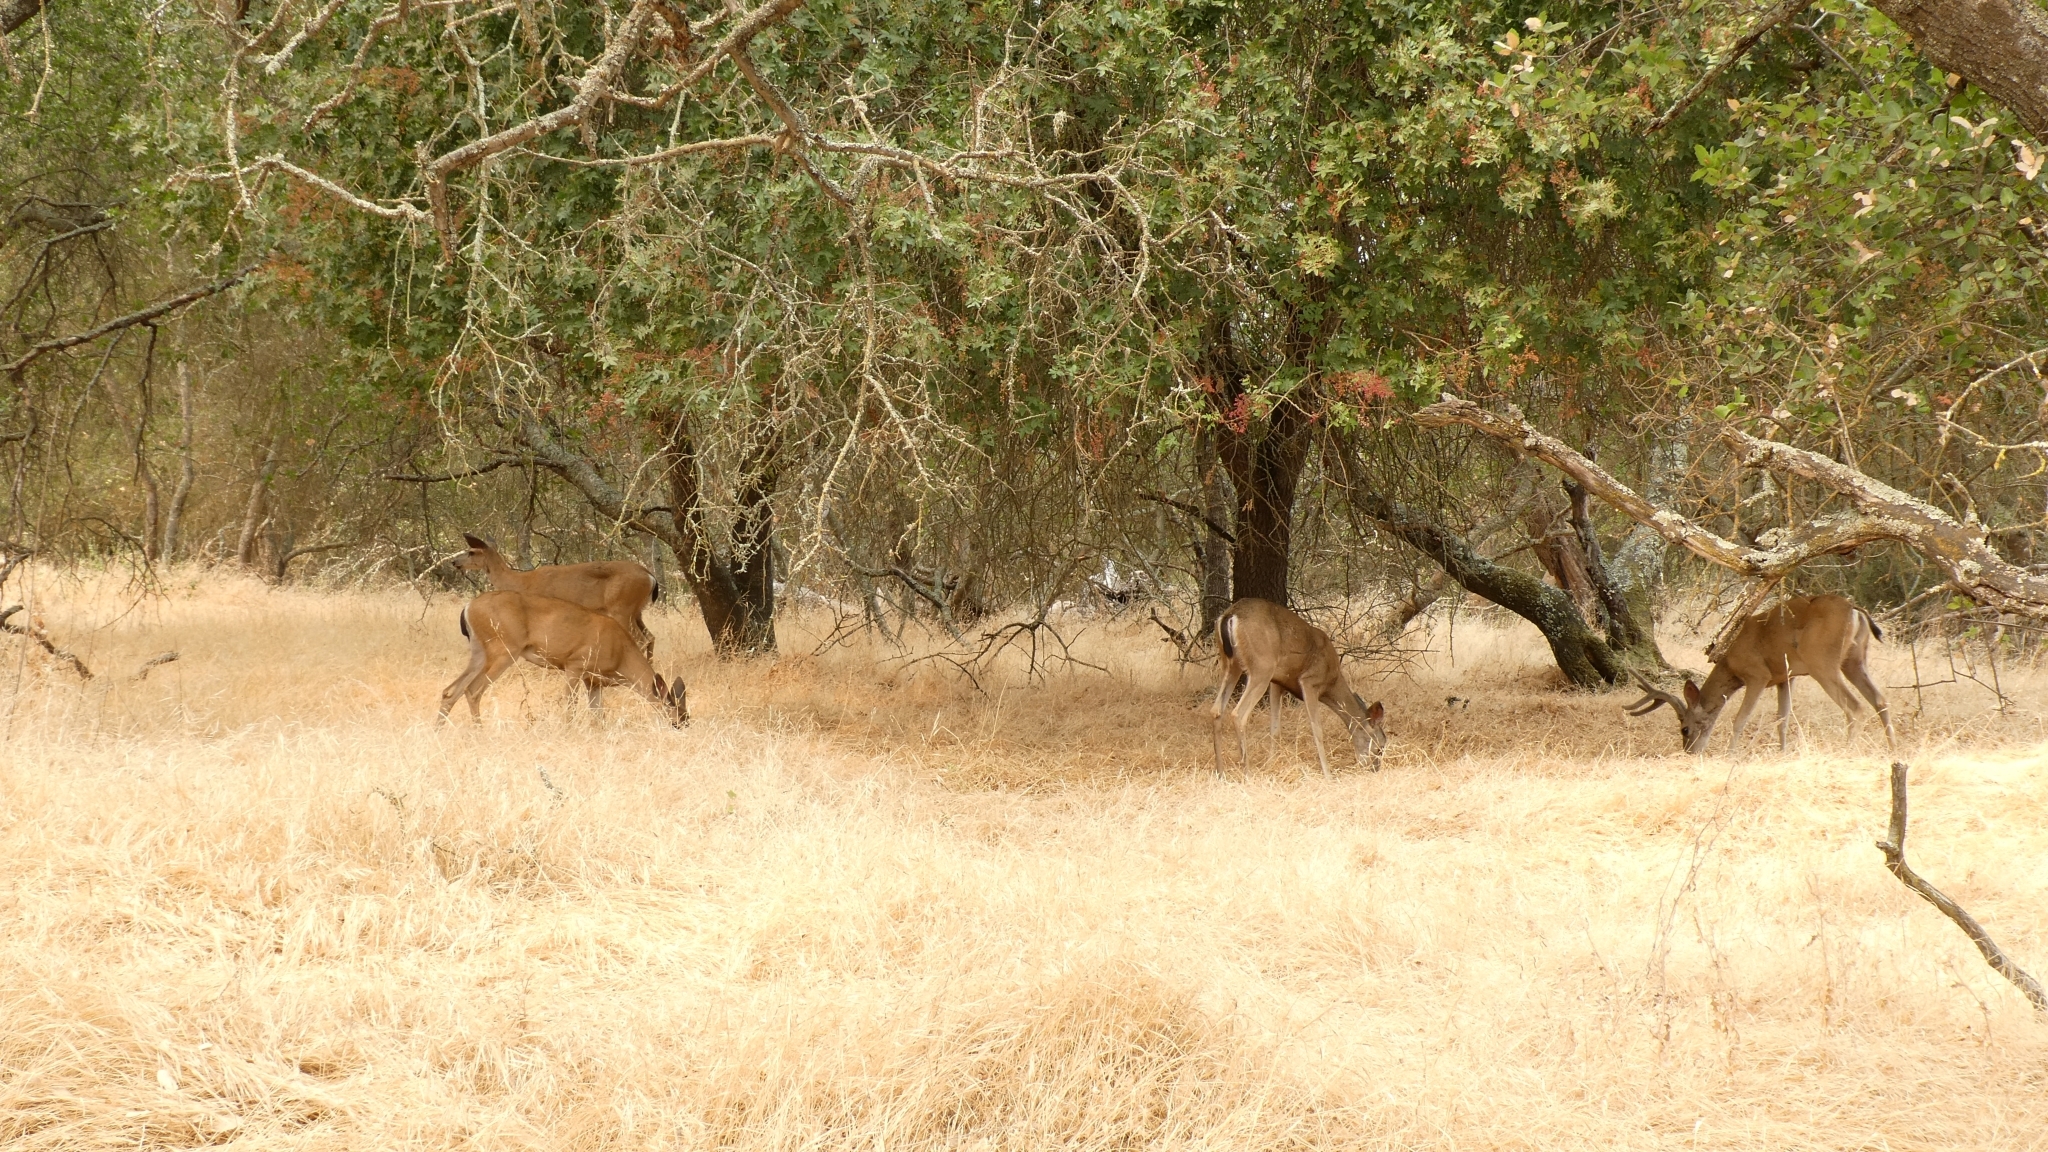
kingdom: Animalia
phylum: Chordata
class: Mammalia
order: Artiodactyla
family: Cervidae
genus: Odocoileus
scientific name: Odocoileus hemionus
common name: Mule deer
